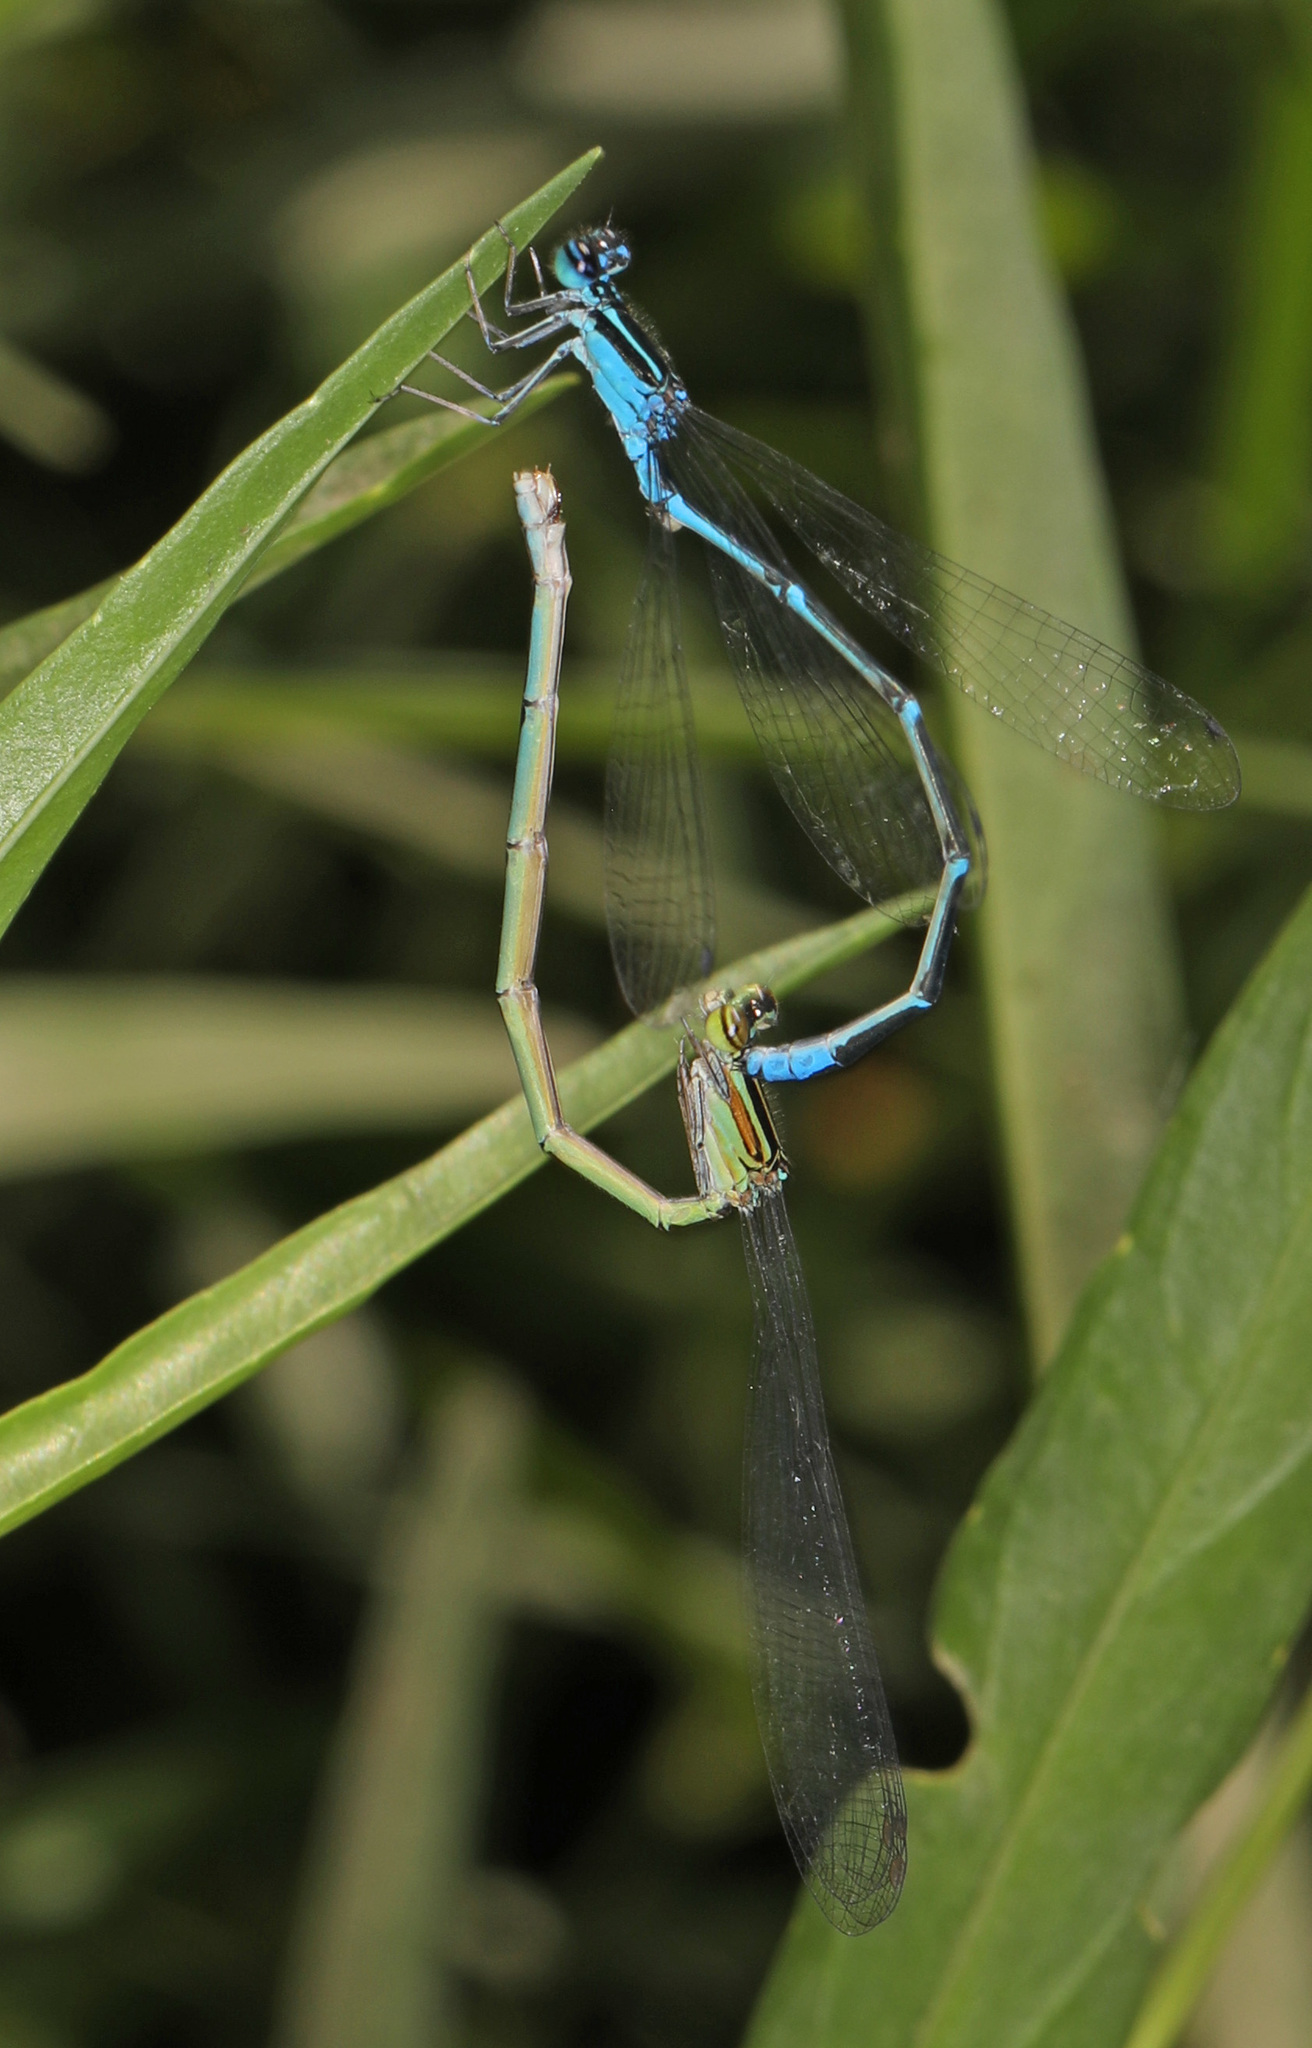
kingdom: Animalia
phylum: Arthropoda
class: Insecta
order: Odonata
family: Coenagrionidae
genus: Enallagma
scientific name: Enallagma exsulans
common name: Stream bluet
